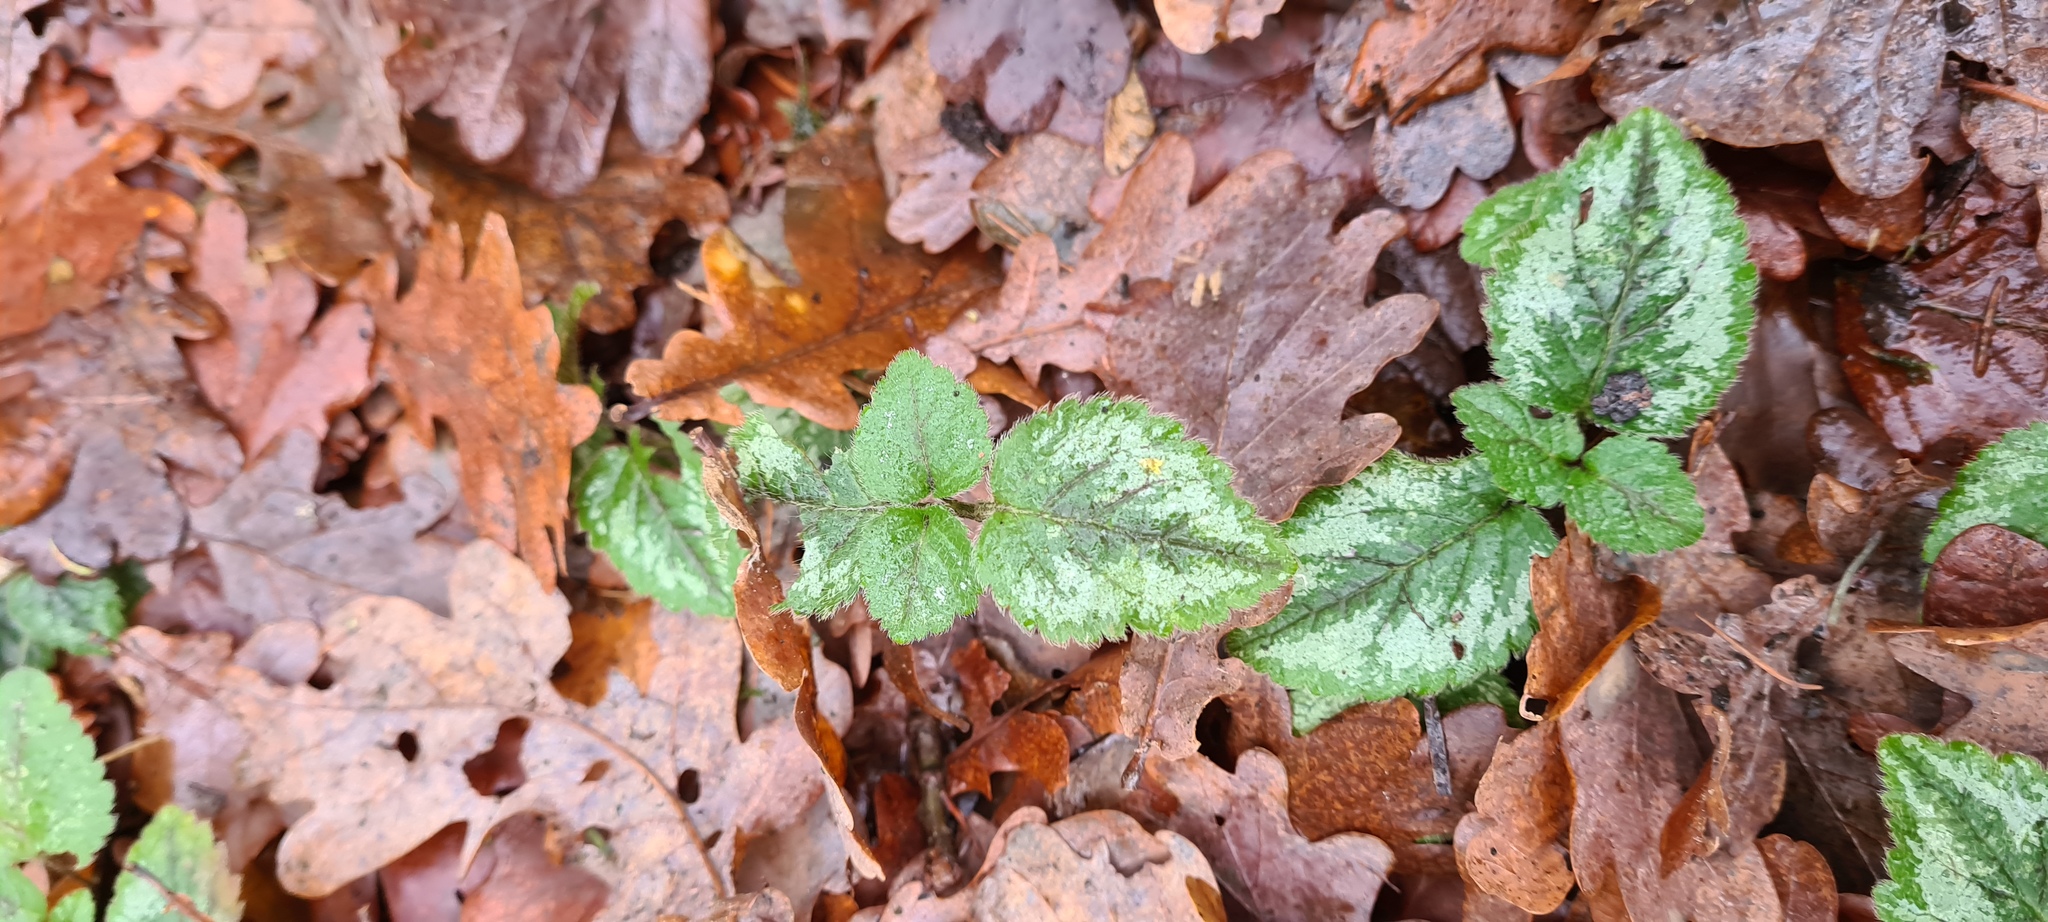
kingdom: Plantae
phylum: Tracheophyta
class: Magnoliopsida
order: Lamiales
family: Lamiaceae
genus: Lamium
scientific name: Lamium galeobdolon
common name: Yellow archangel
